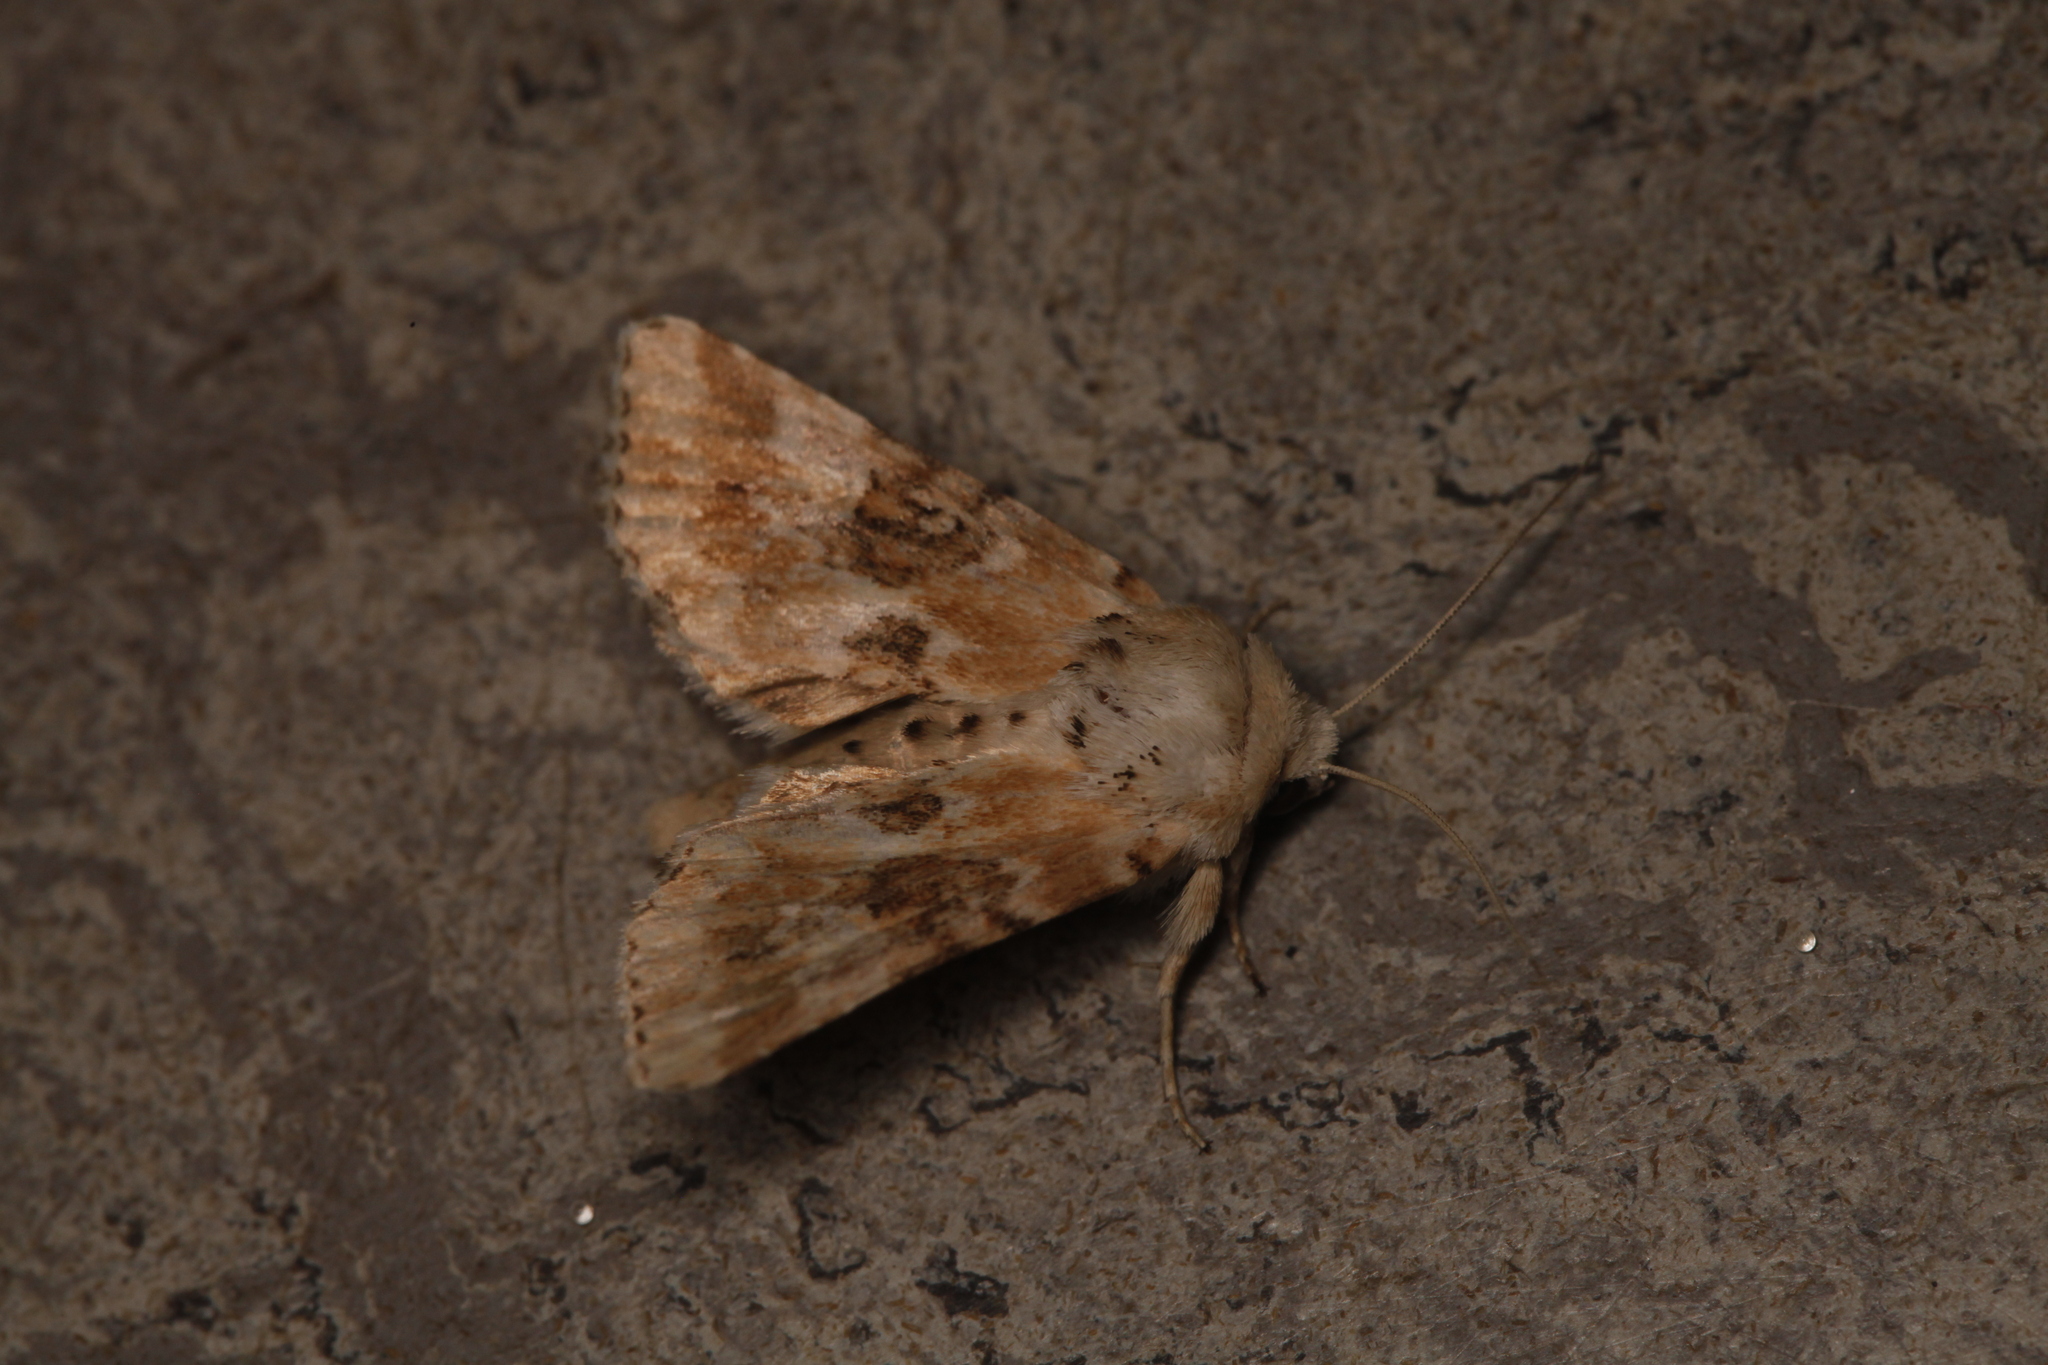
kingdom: Animalia
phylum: Arthropoda
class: Insecta
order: Lepidoptera
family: Noctuidae
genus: Eremobia
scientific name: Eremobia ochroleuca
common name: Dusky sallow
